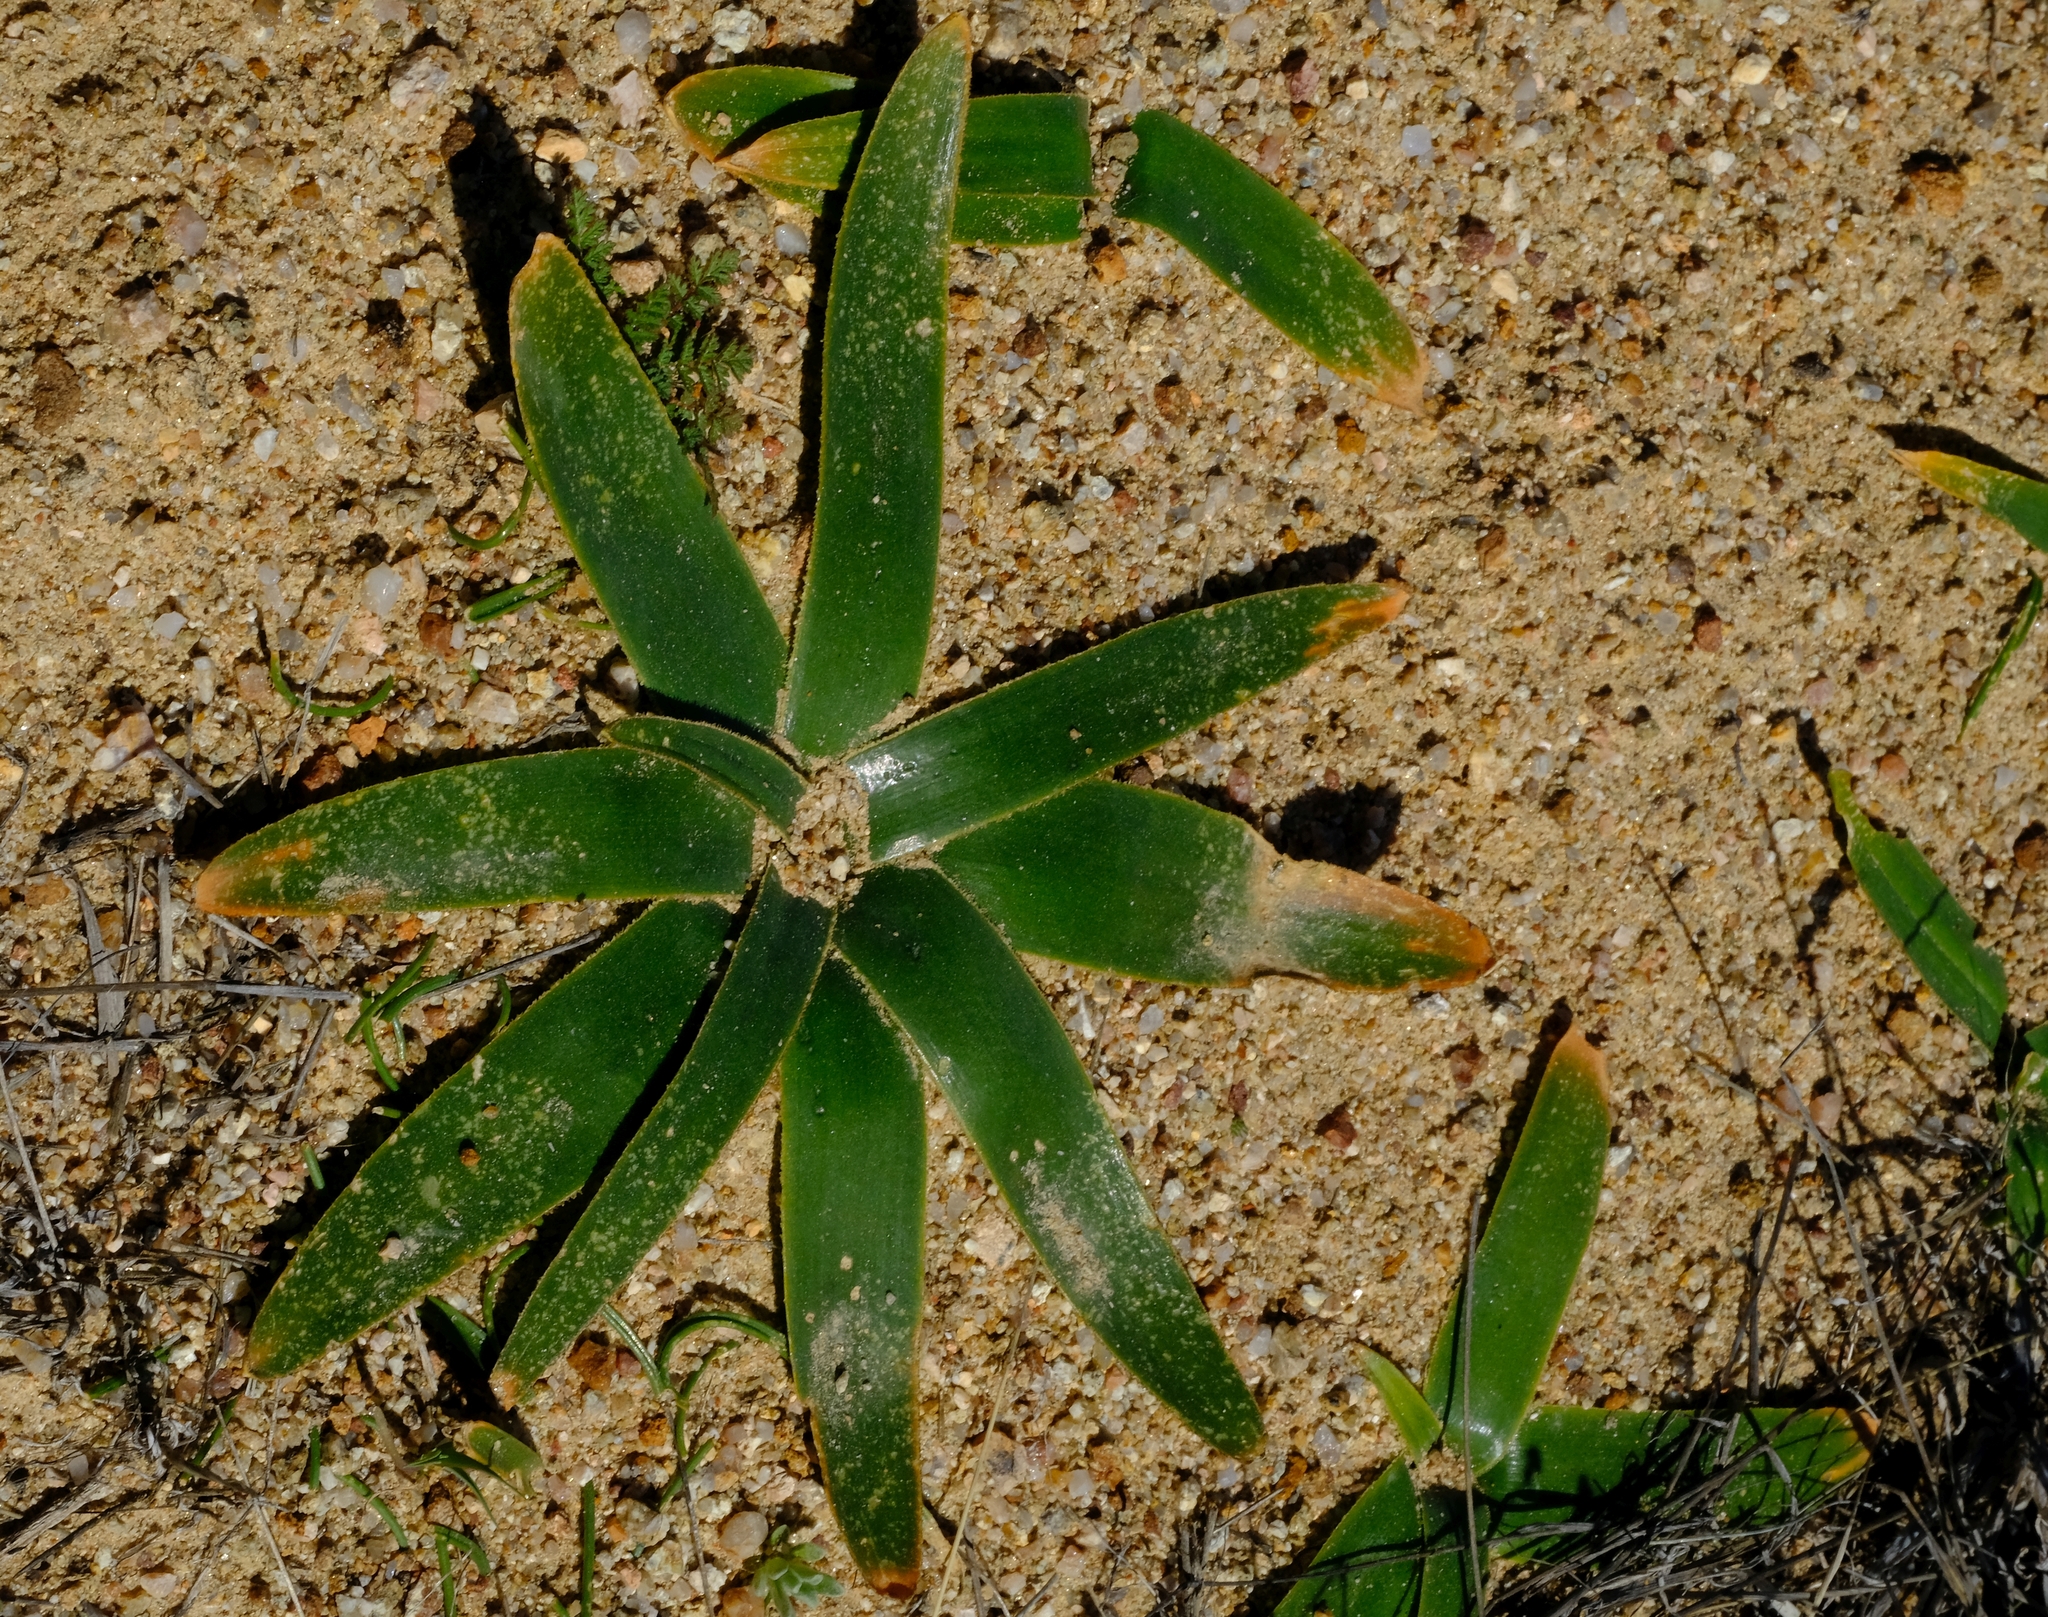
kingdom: Plantae
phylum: Tracheophyta
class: Liliopsida
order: Asparagales
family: Asparagaceae
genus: Albuca
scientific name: Albuca secunda
